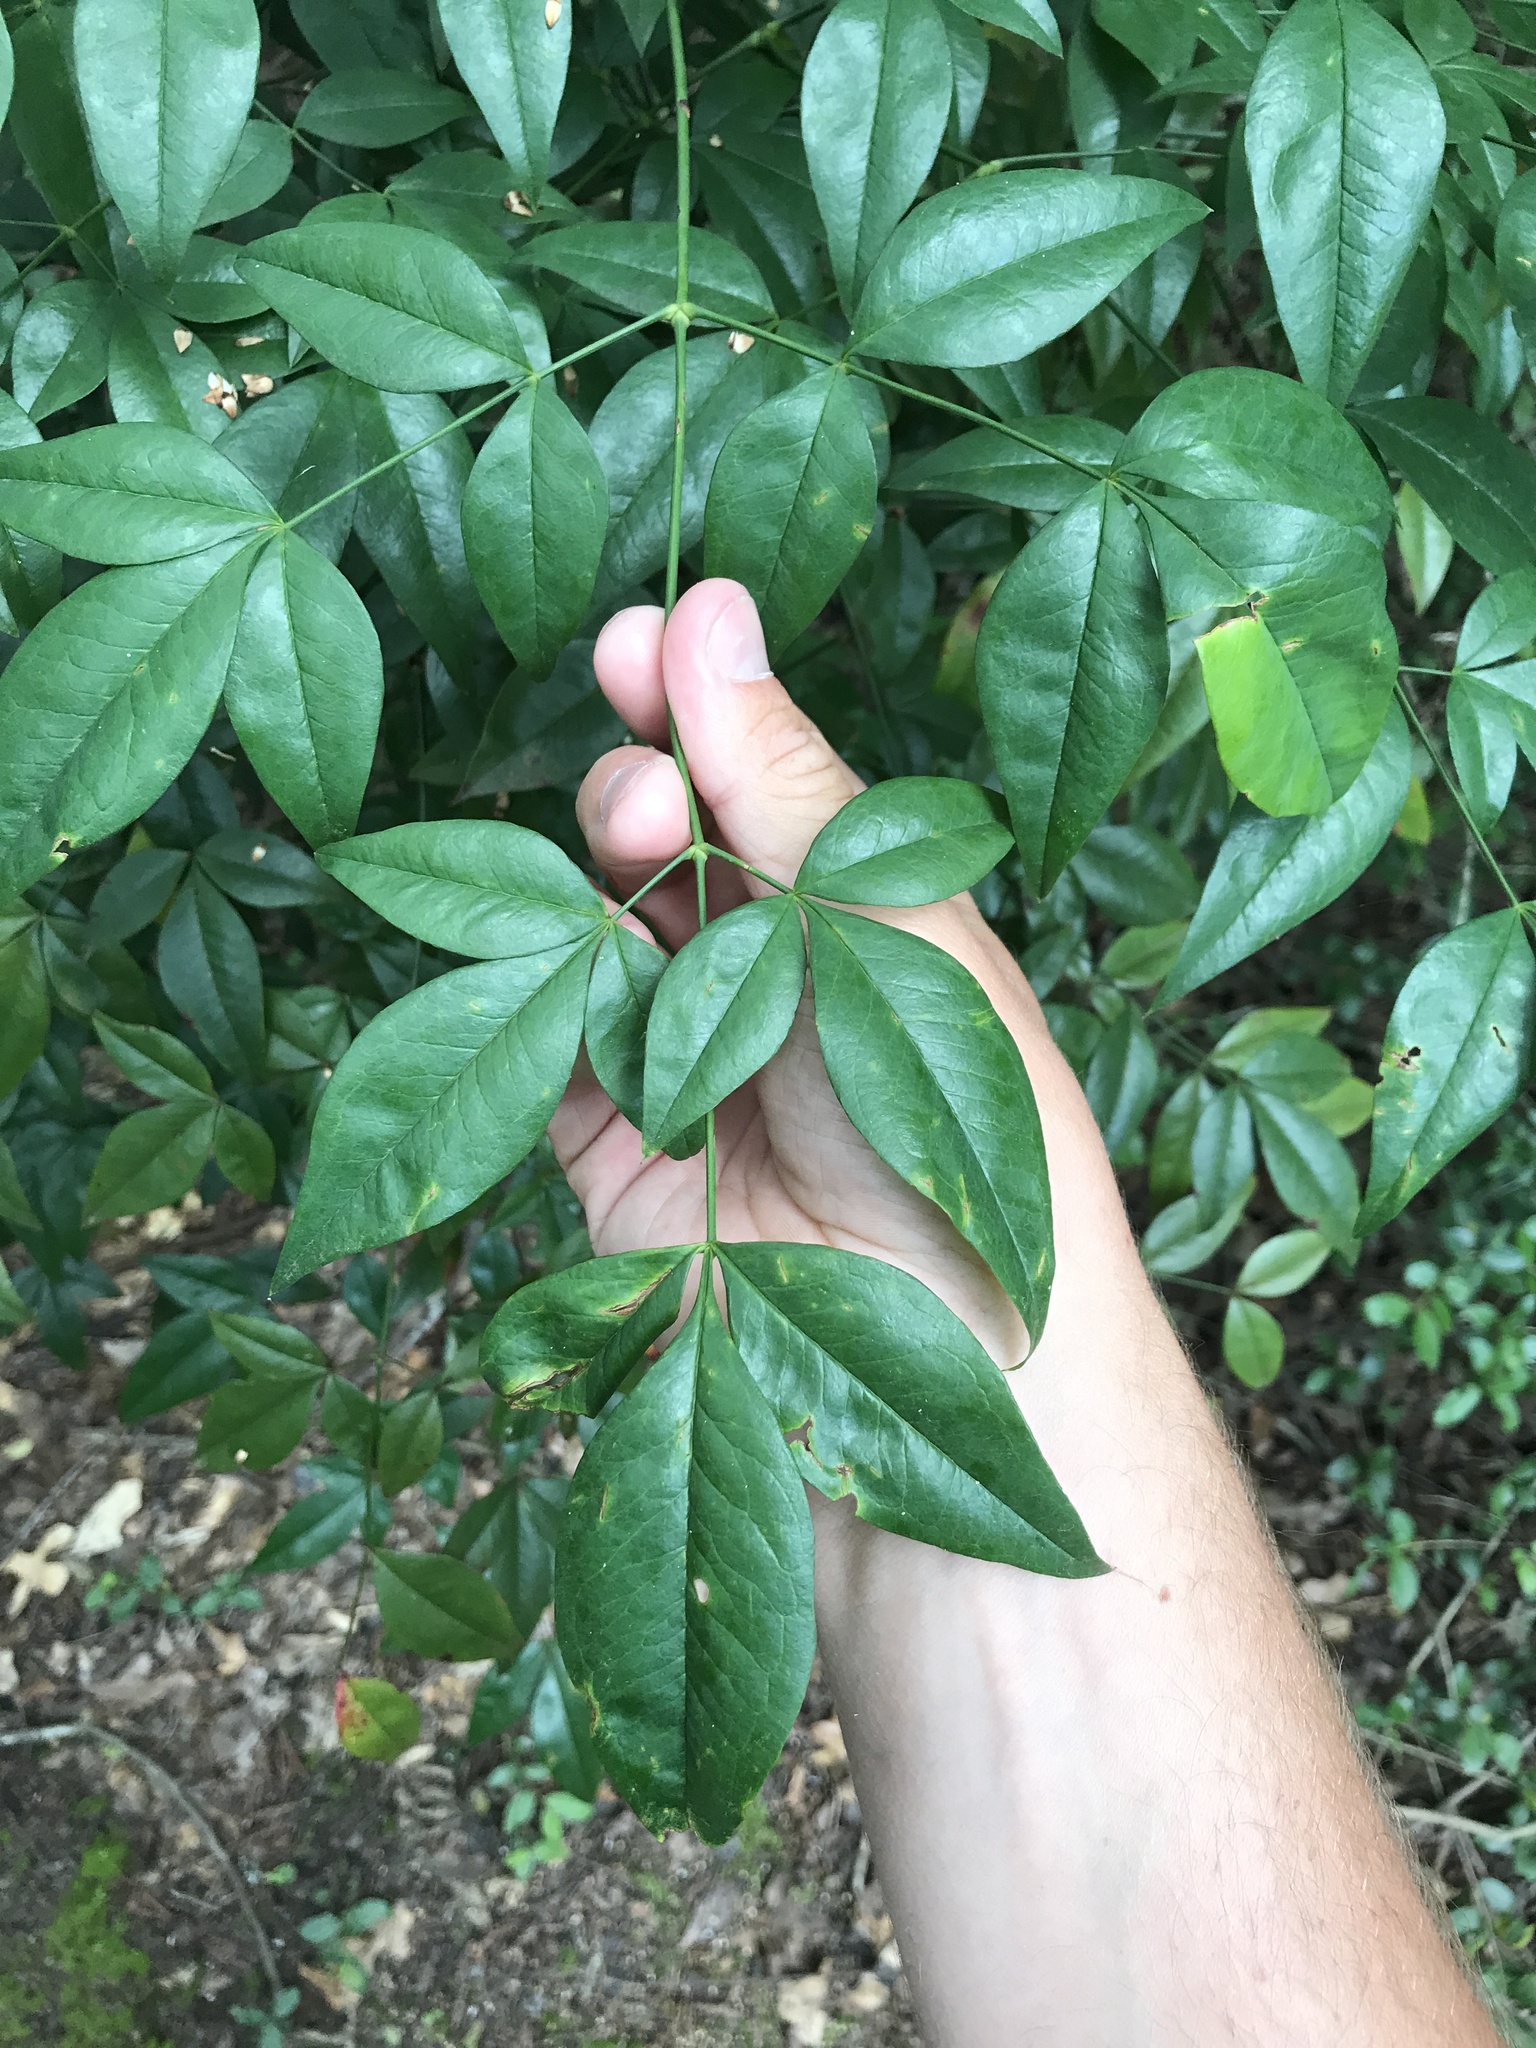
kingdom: Plantae
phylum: Tracheophyta
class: Magnoliopsida
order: Ranunculales
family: Berberidaceae
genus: Nandina
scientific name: Nandina domestica
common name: Sacred bamboo
